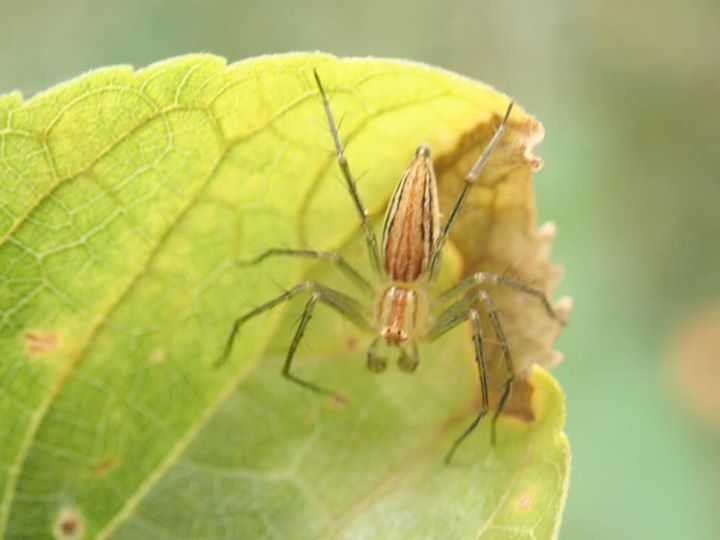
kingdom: Animalia
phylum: Arthropoda
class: Arachnida
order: Araneae
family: Oxyopidae
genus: Oxyopes
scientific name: Oxyopes macilentus
